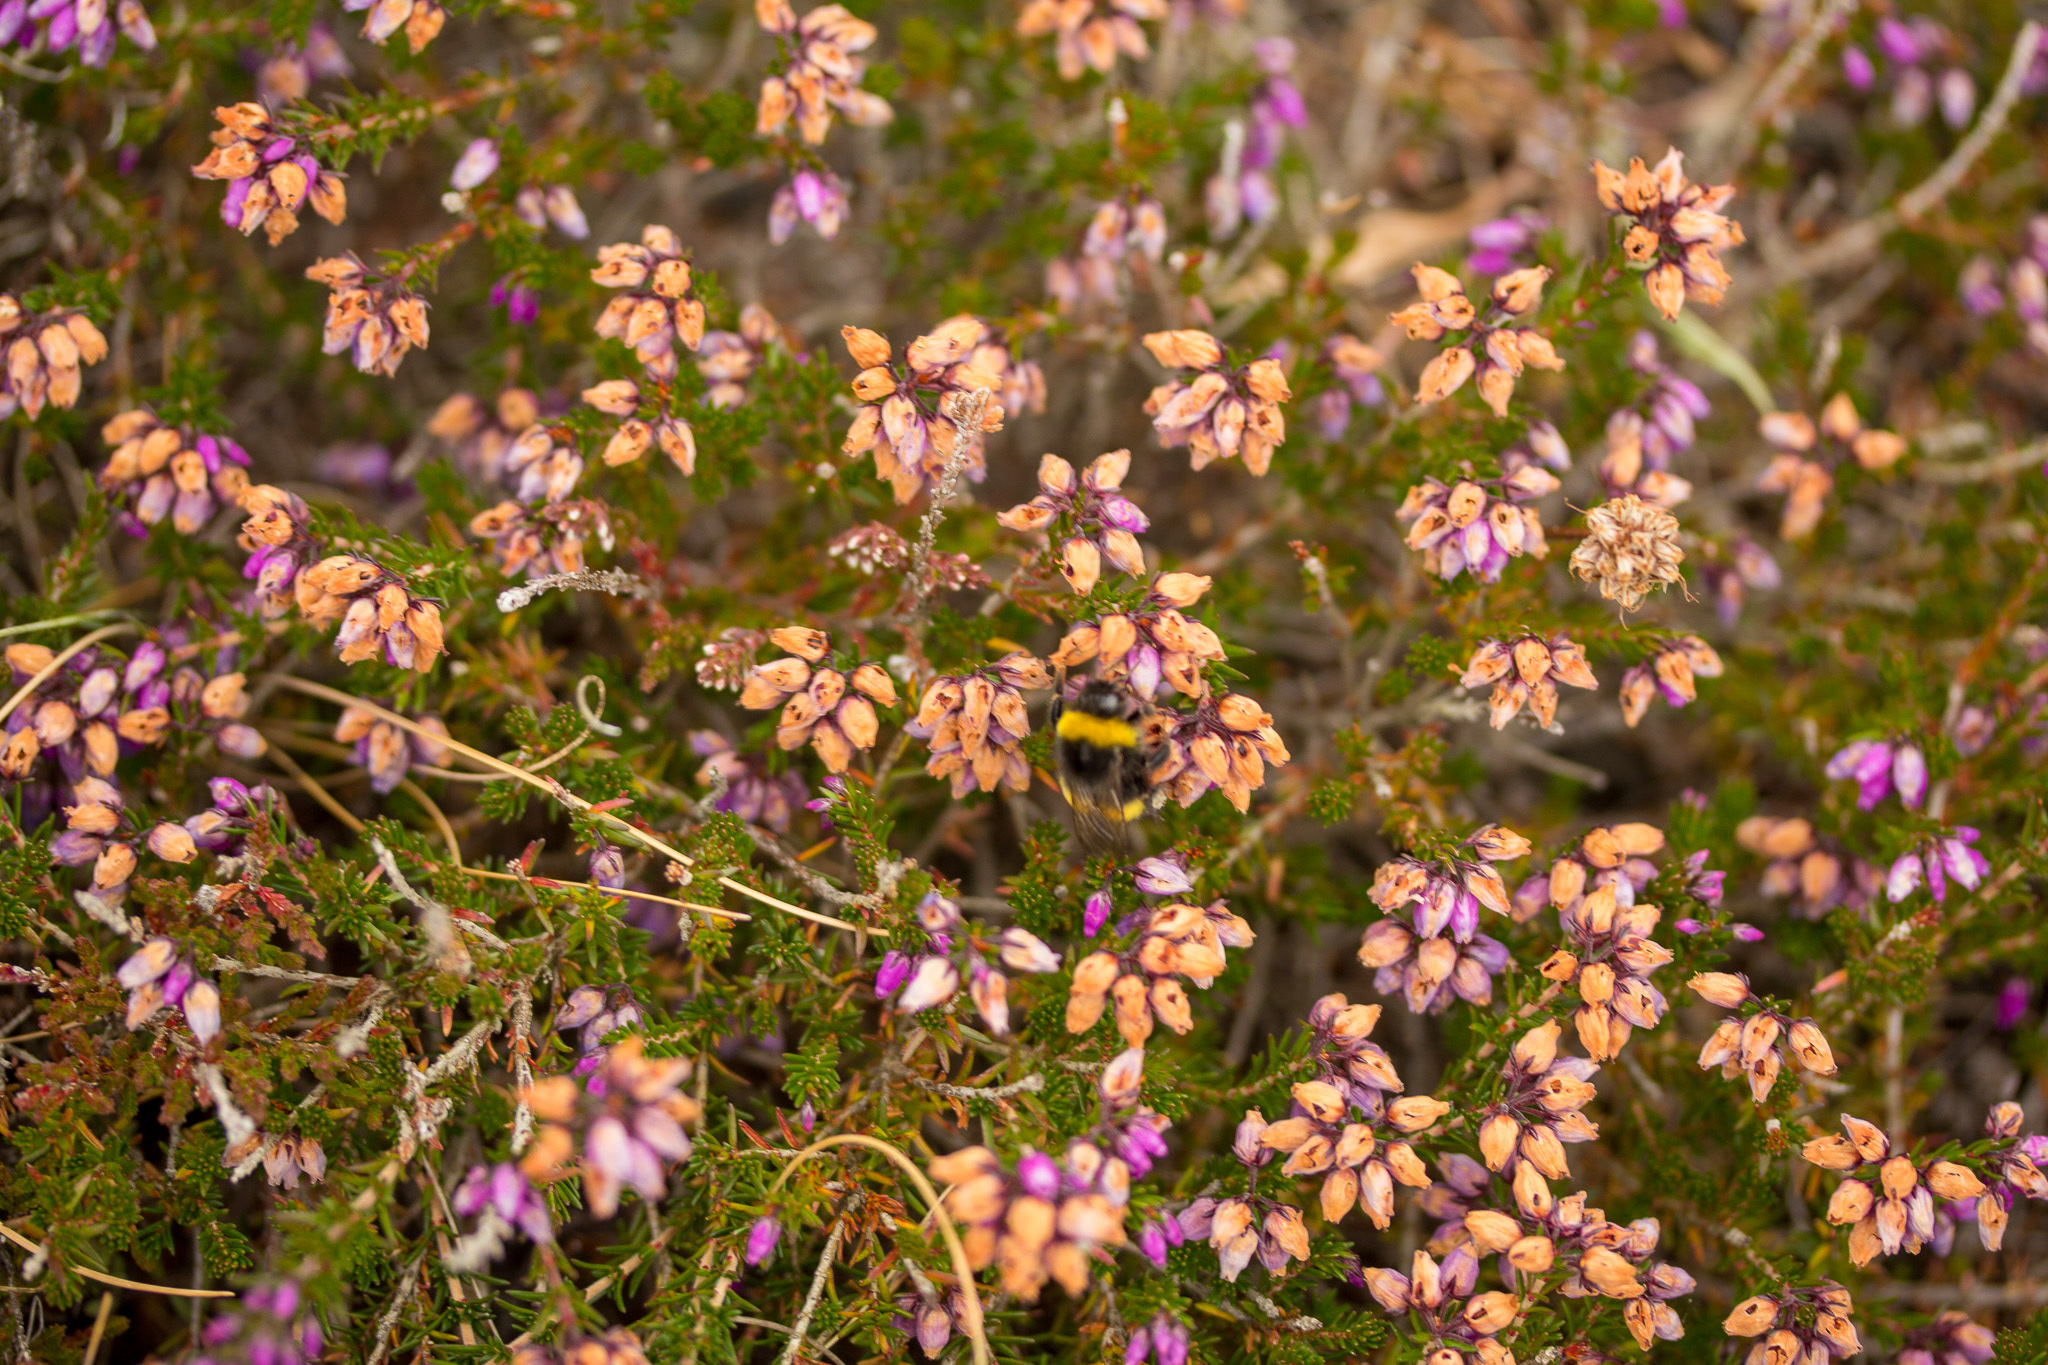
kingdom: Plantae
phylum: Tracheophyta
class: Magnoliopsida
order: Ericales
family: Ericaceae
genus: Erica
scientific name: Erica cinerea
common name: Bell heather
